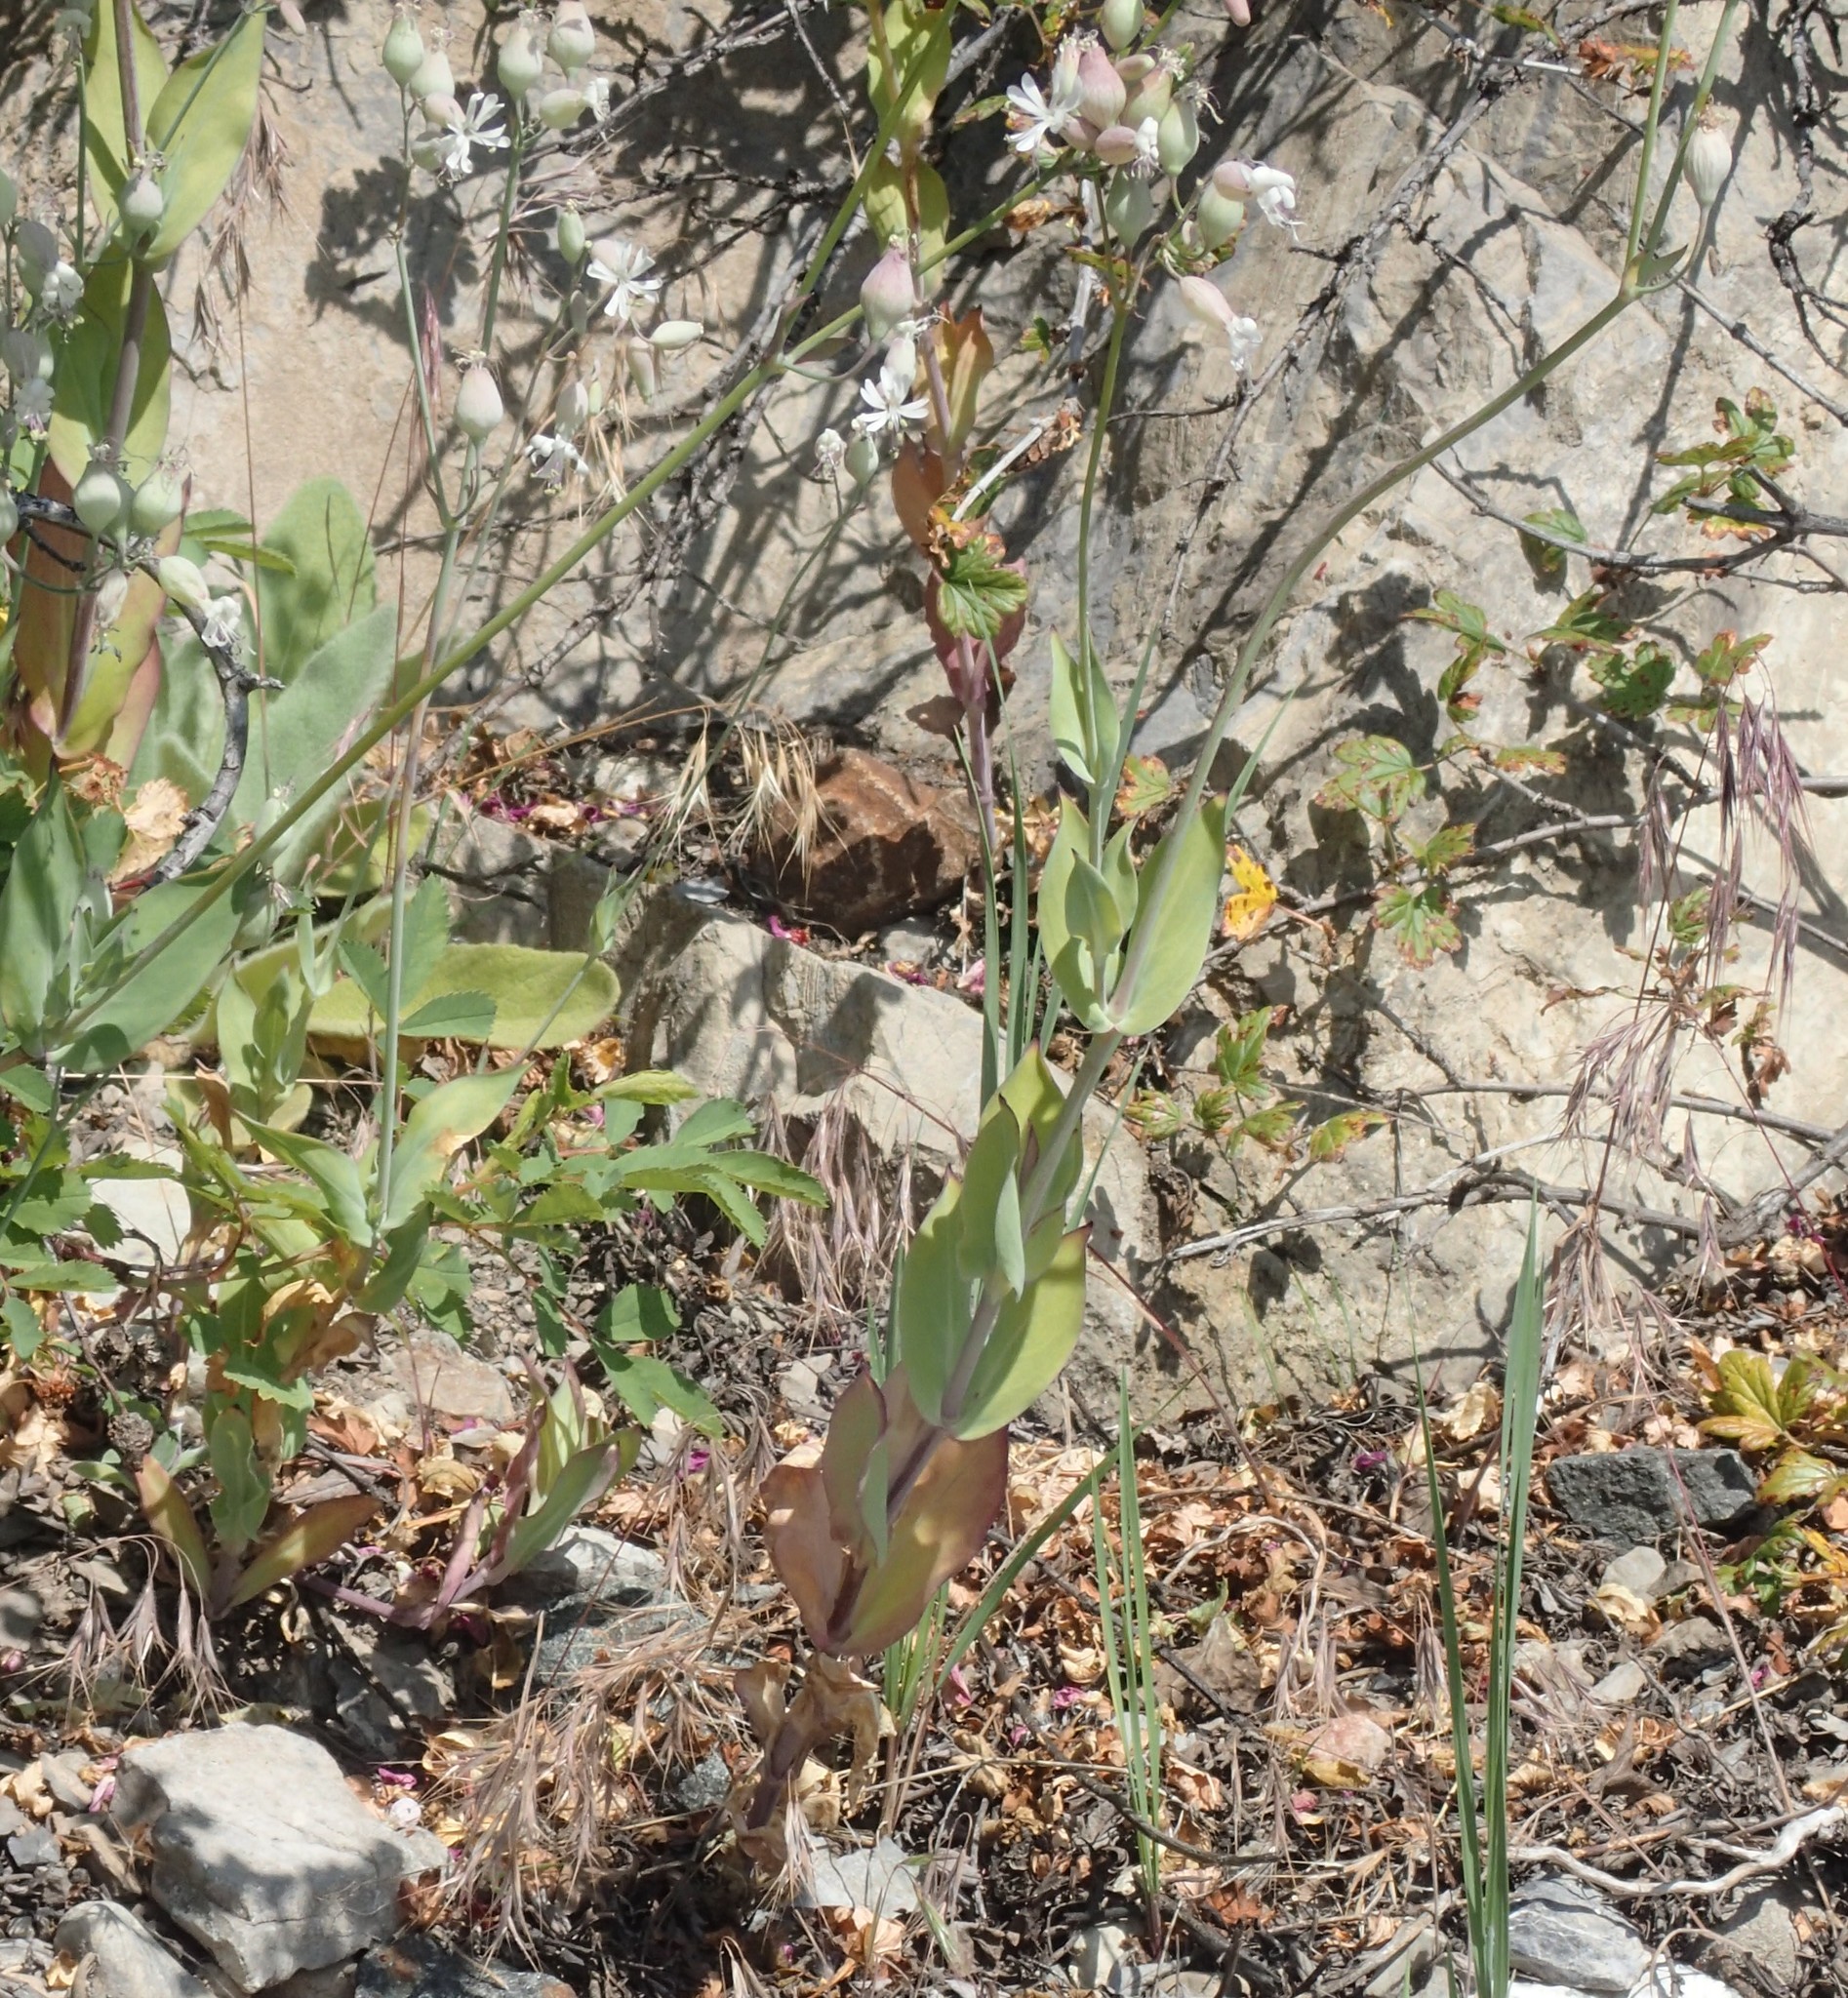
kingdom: Plantae
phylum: Tracheophyta
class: Magnoliopsida
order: Caryophyllales
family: Caryophyllaceae
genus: Silene
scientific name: Silene csereii
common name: Balkan catchfly
